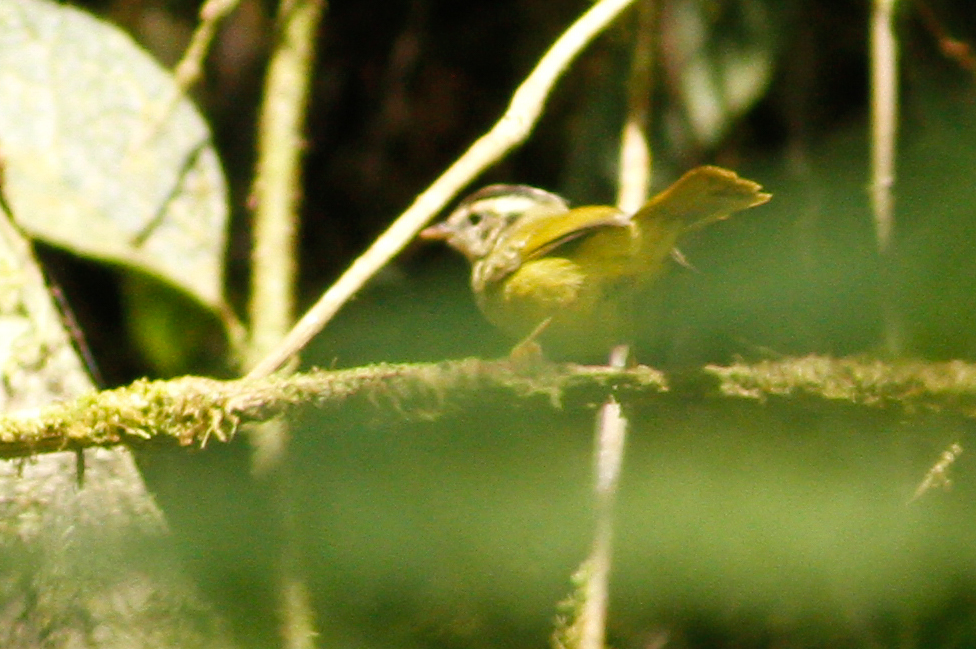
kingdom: Animalia
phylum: Chordata
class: Aves
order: Passeriformes
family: Parulidae
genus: Basileuterus
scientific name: Basileuterus tristriatus
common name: Three-striped warbler
